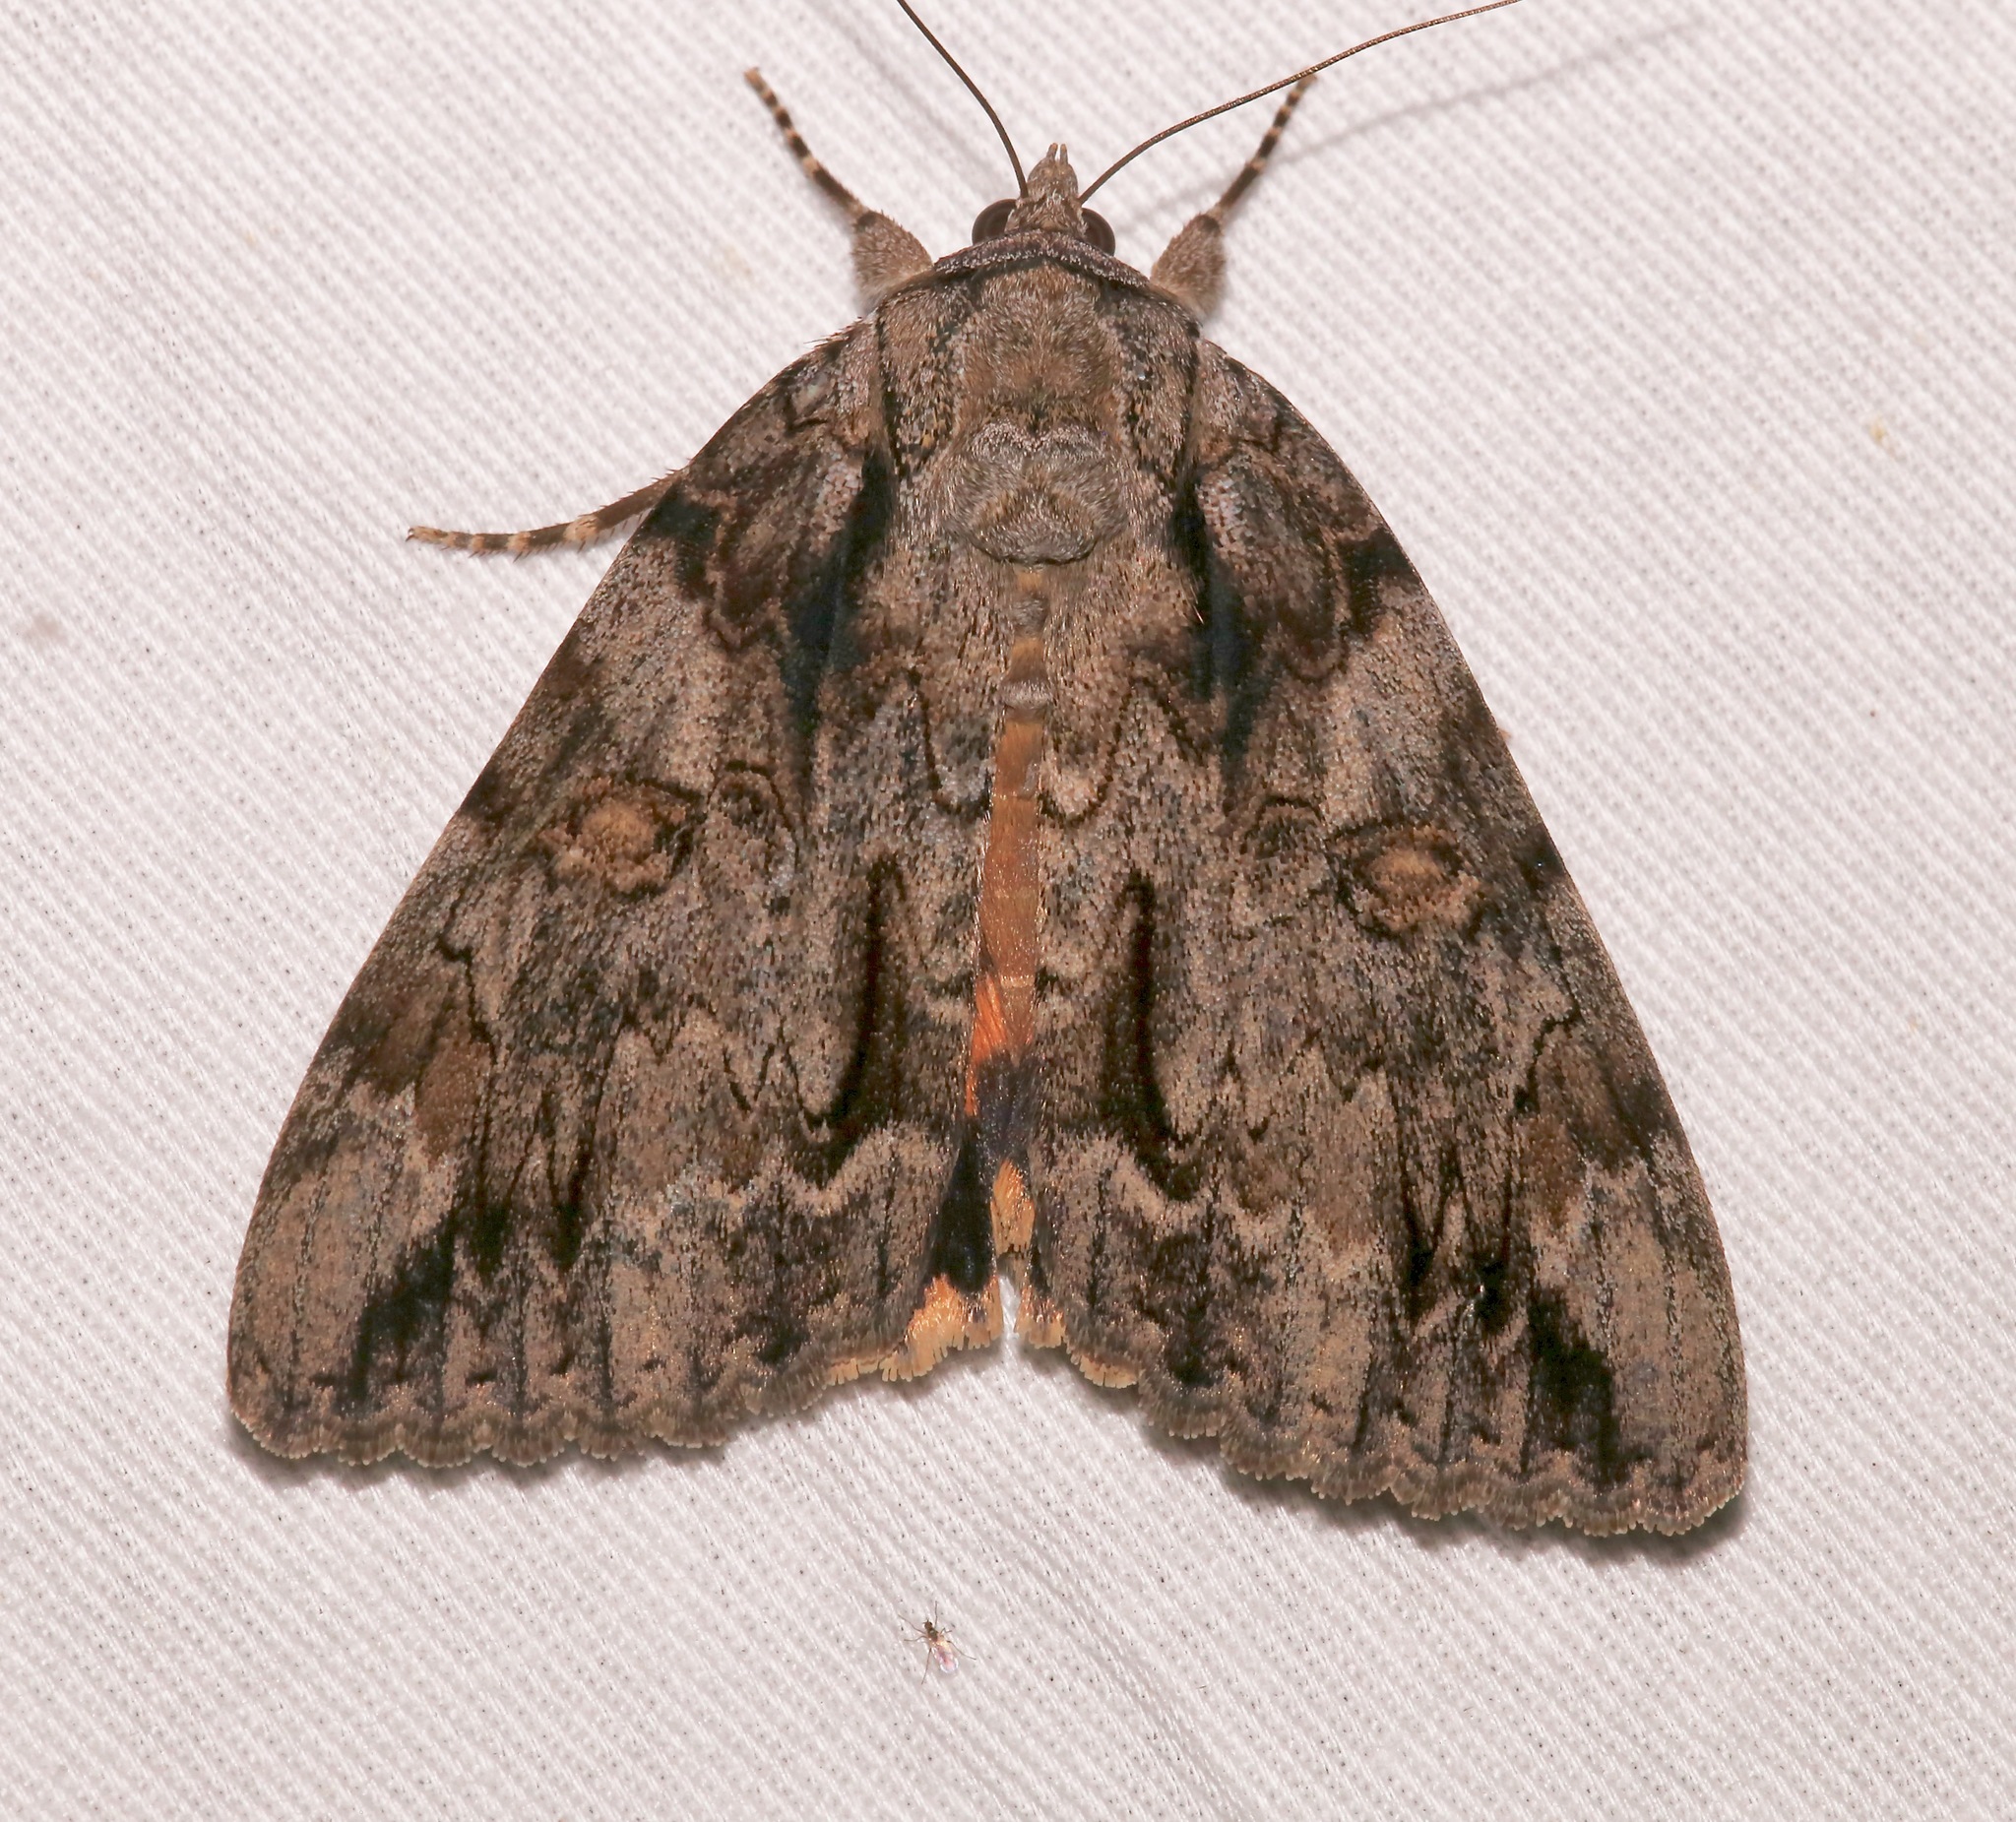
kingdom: Animalia
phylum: Arthropoda
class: Insecta
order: Lepidoptera
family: Erebidae
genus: Catocala
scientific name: Catocala neogama
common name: Bride underwing
